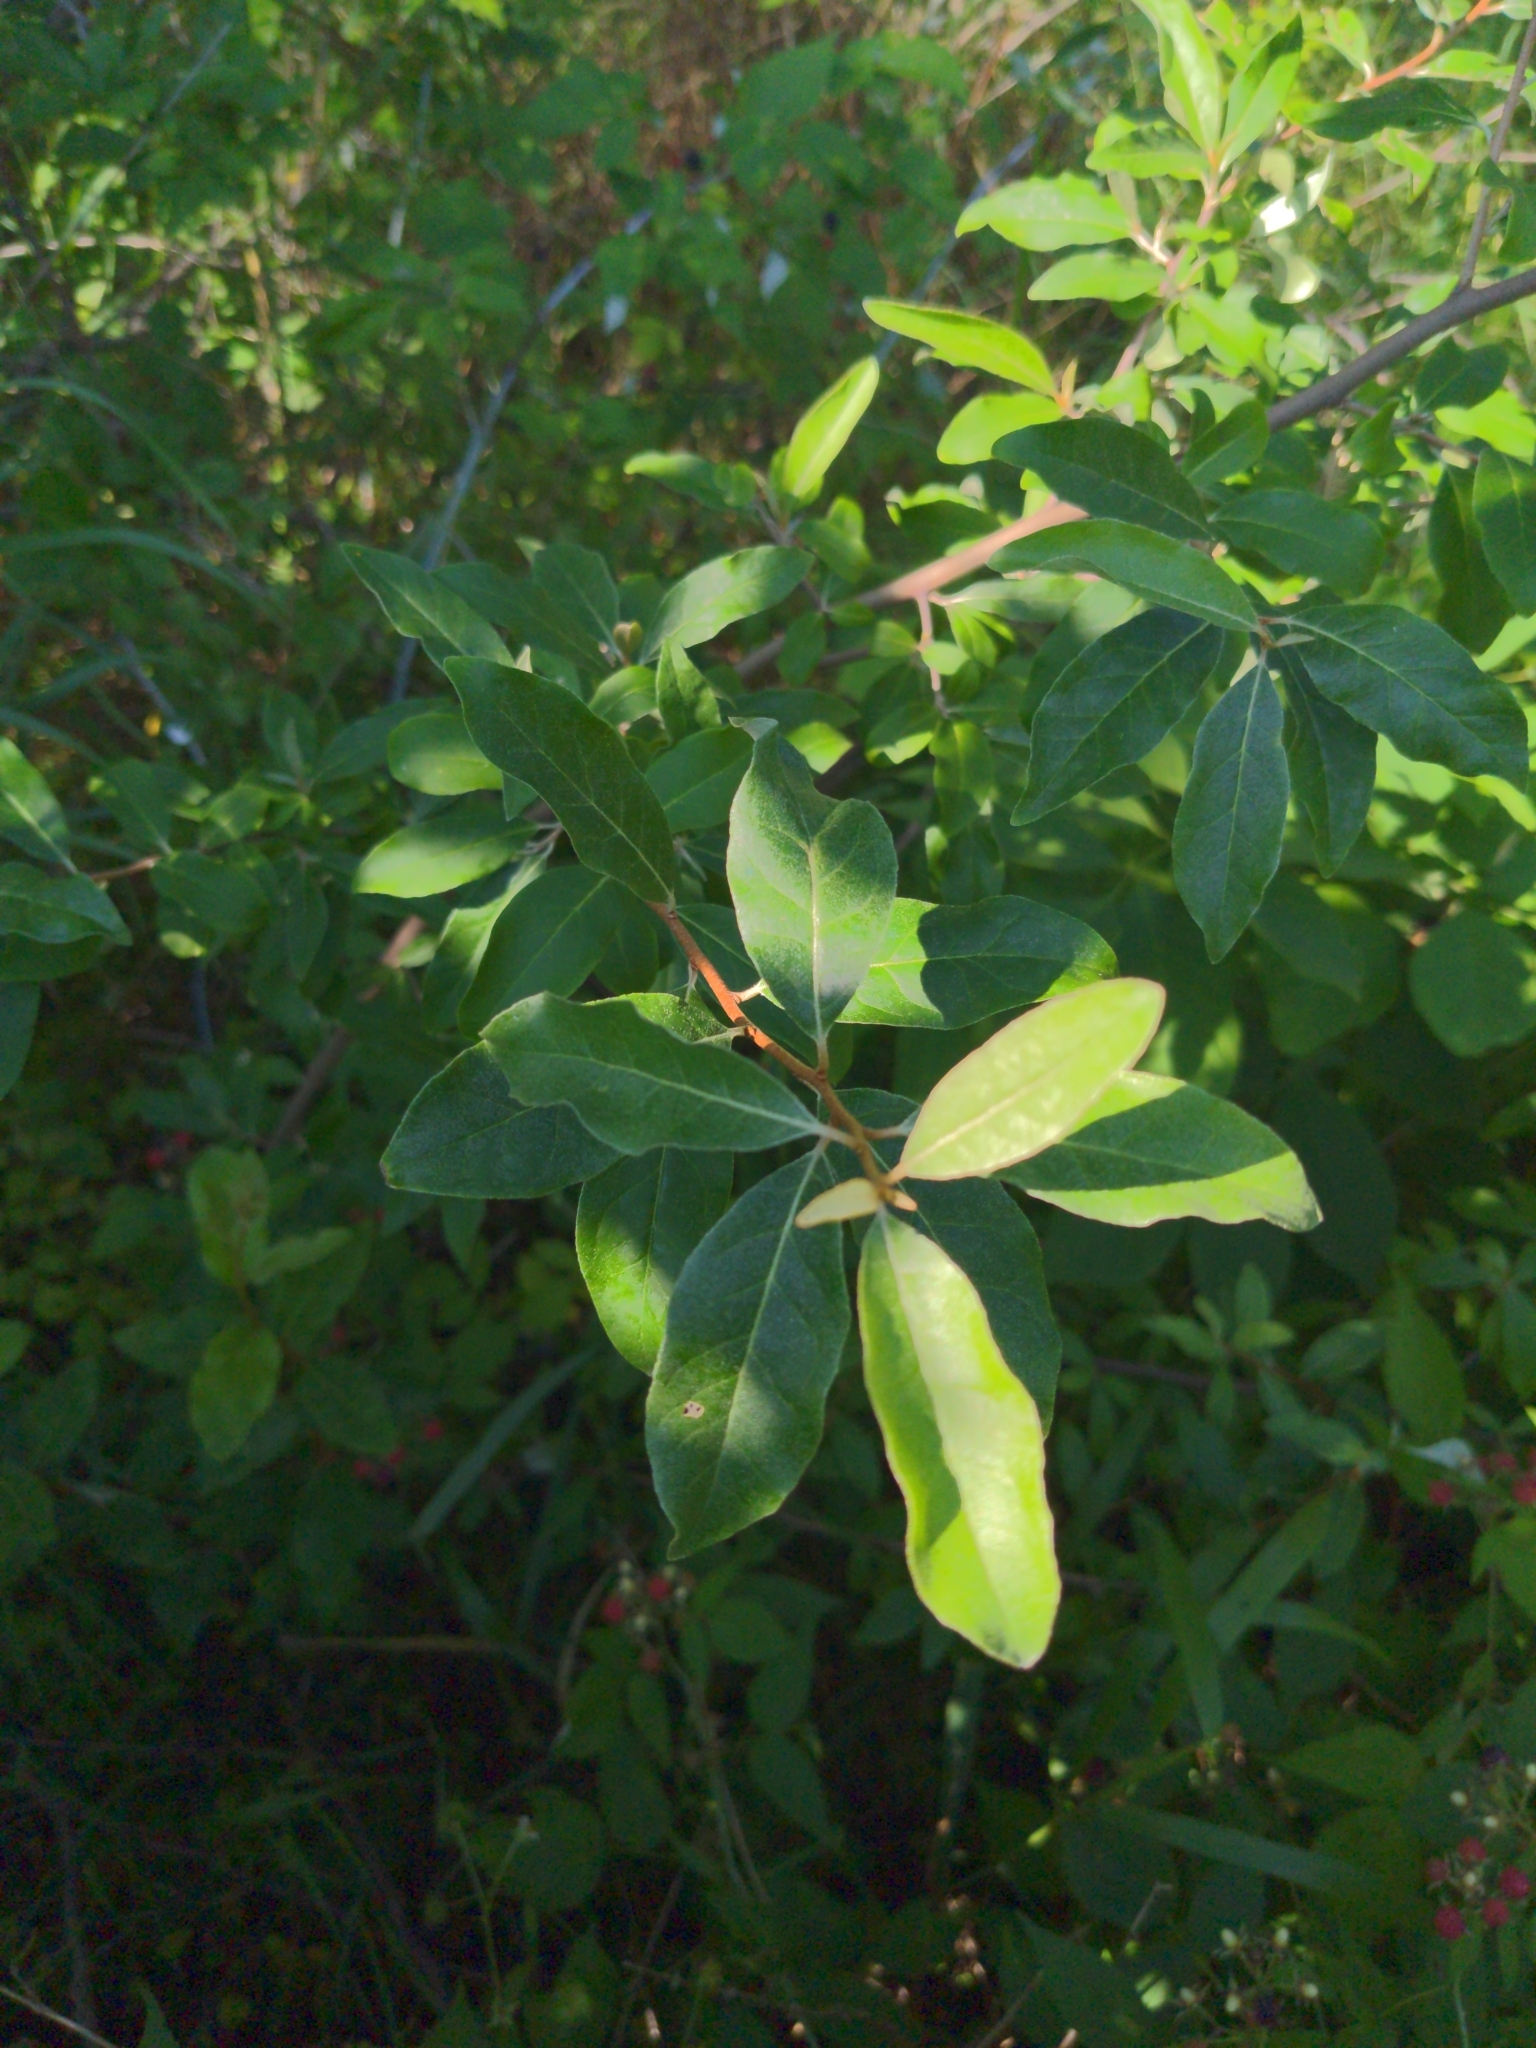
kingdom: Plantae
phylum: Tracheophyta
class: Magnoliopsida
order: Rosales
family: Elaeagnaceae
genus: Elaeagnus
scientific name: Elaeagnus umbellata
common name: Autumn olive
